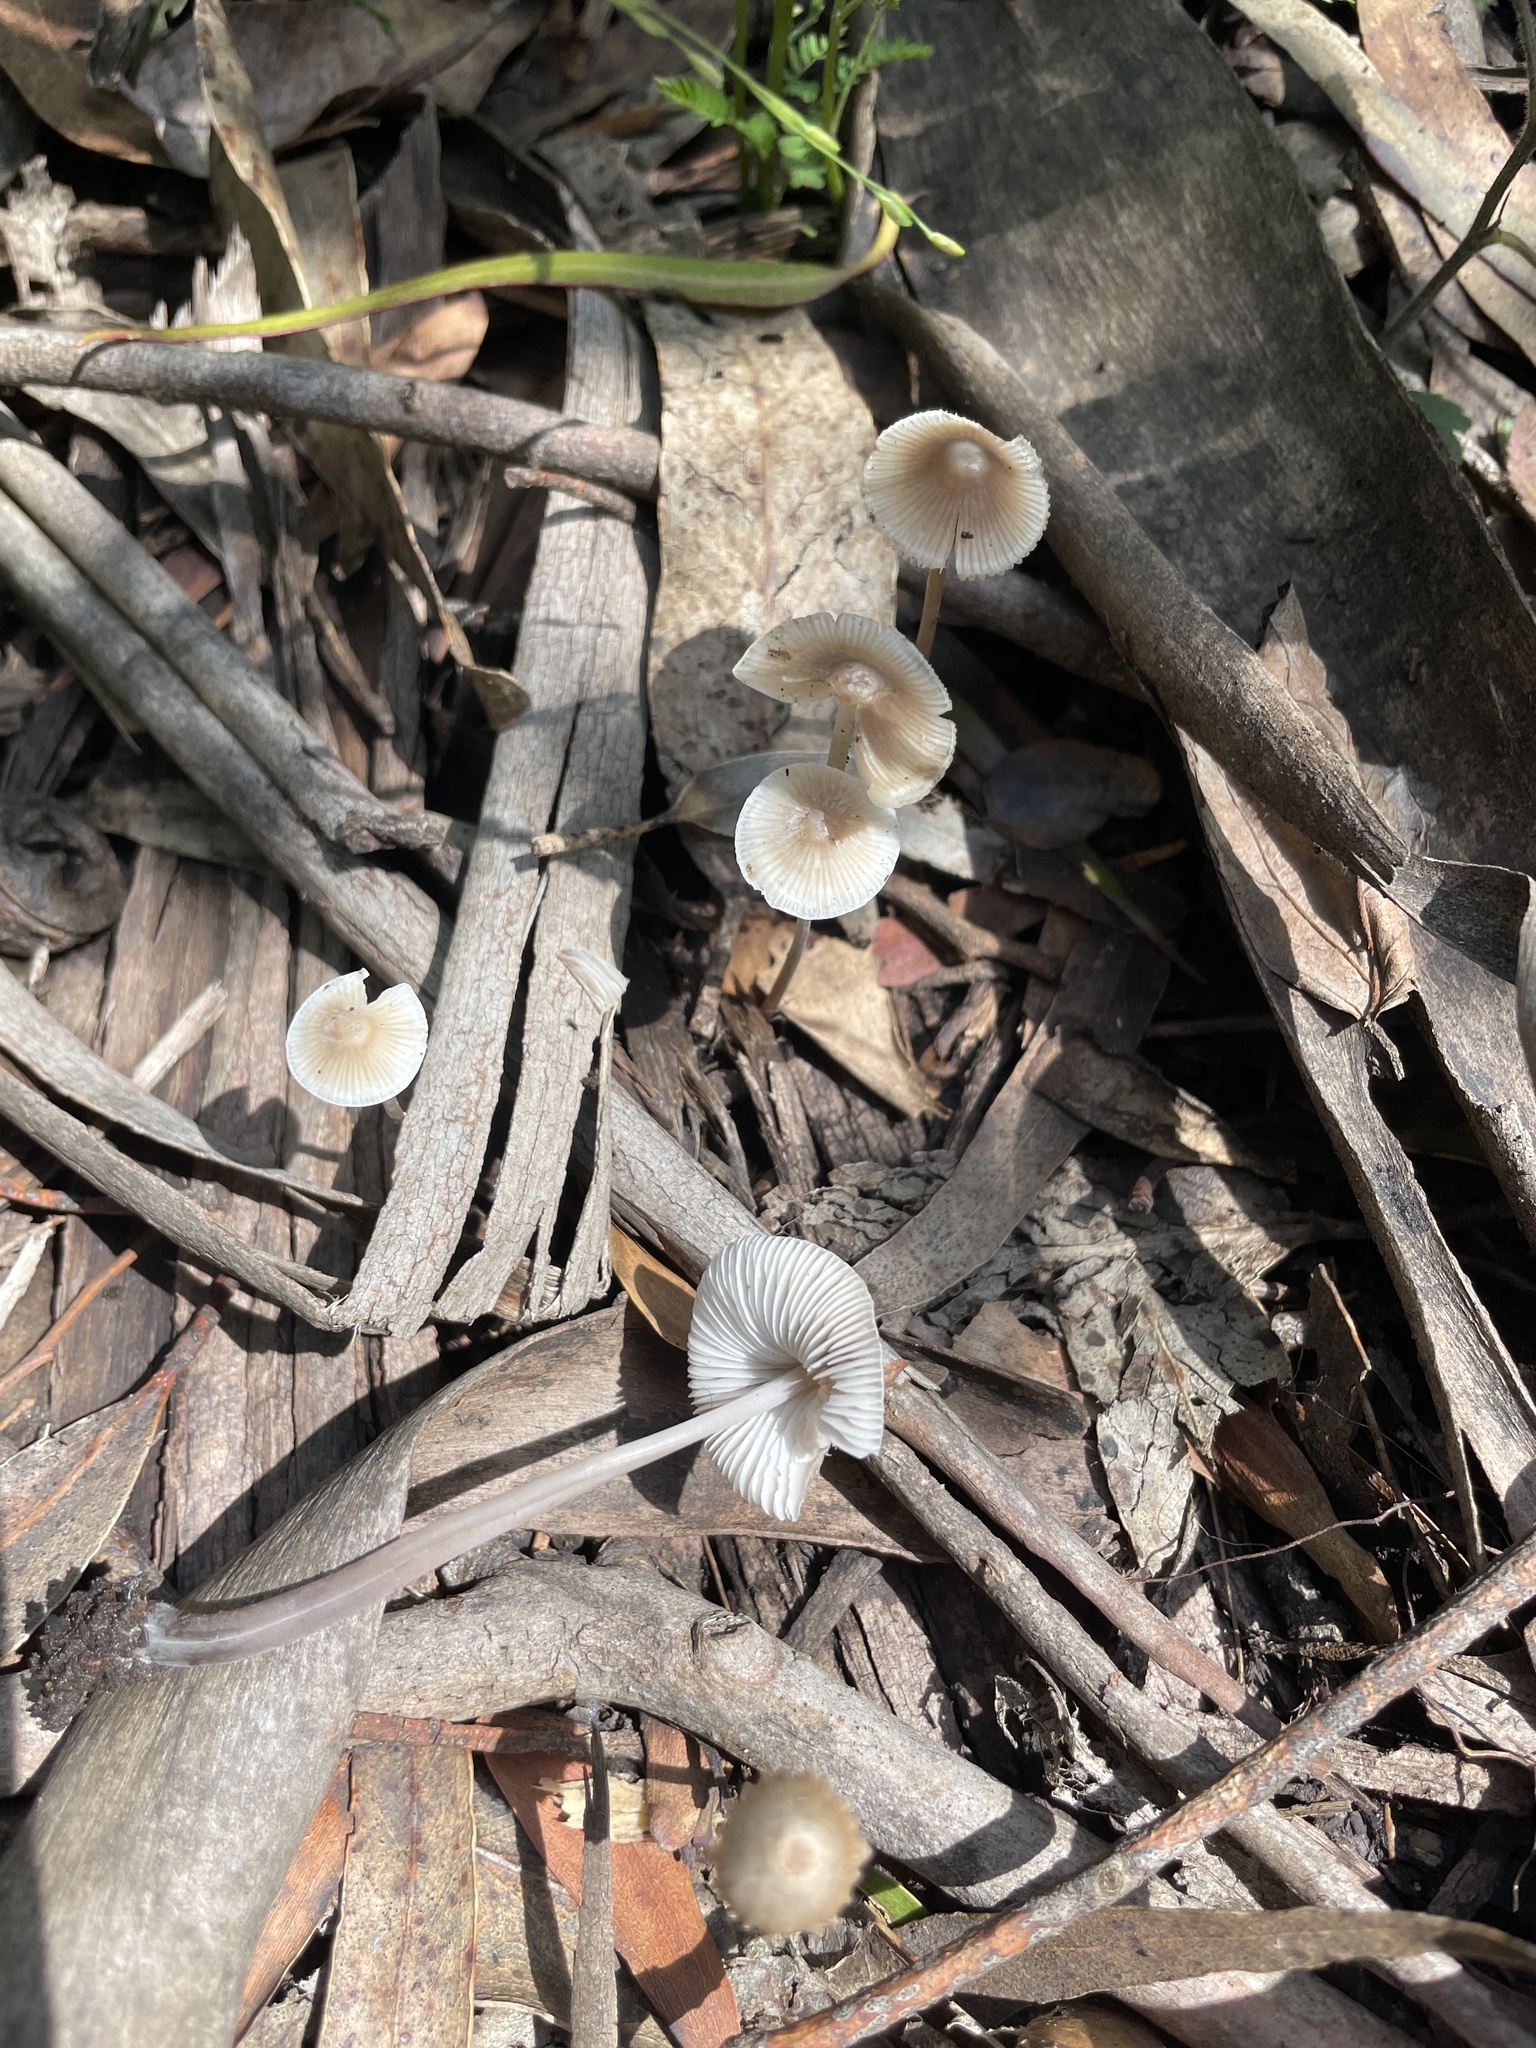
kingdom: Fungi
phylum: Basidiomycota
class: Agaricomycetes
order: Agaricales
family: Mycenaceae
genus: Mycena
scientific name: Mycena amicta
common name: Coldfoot bonnet
